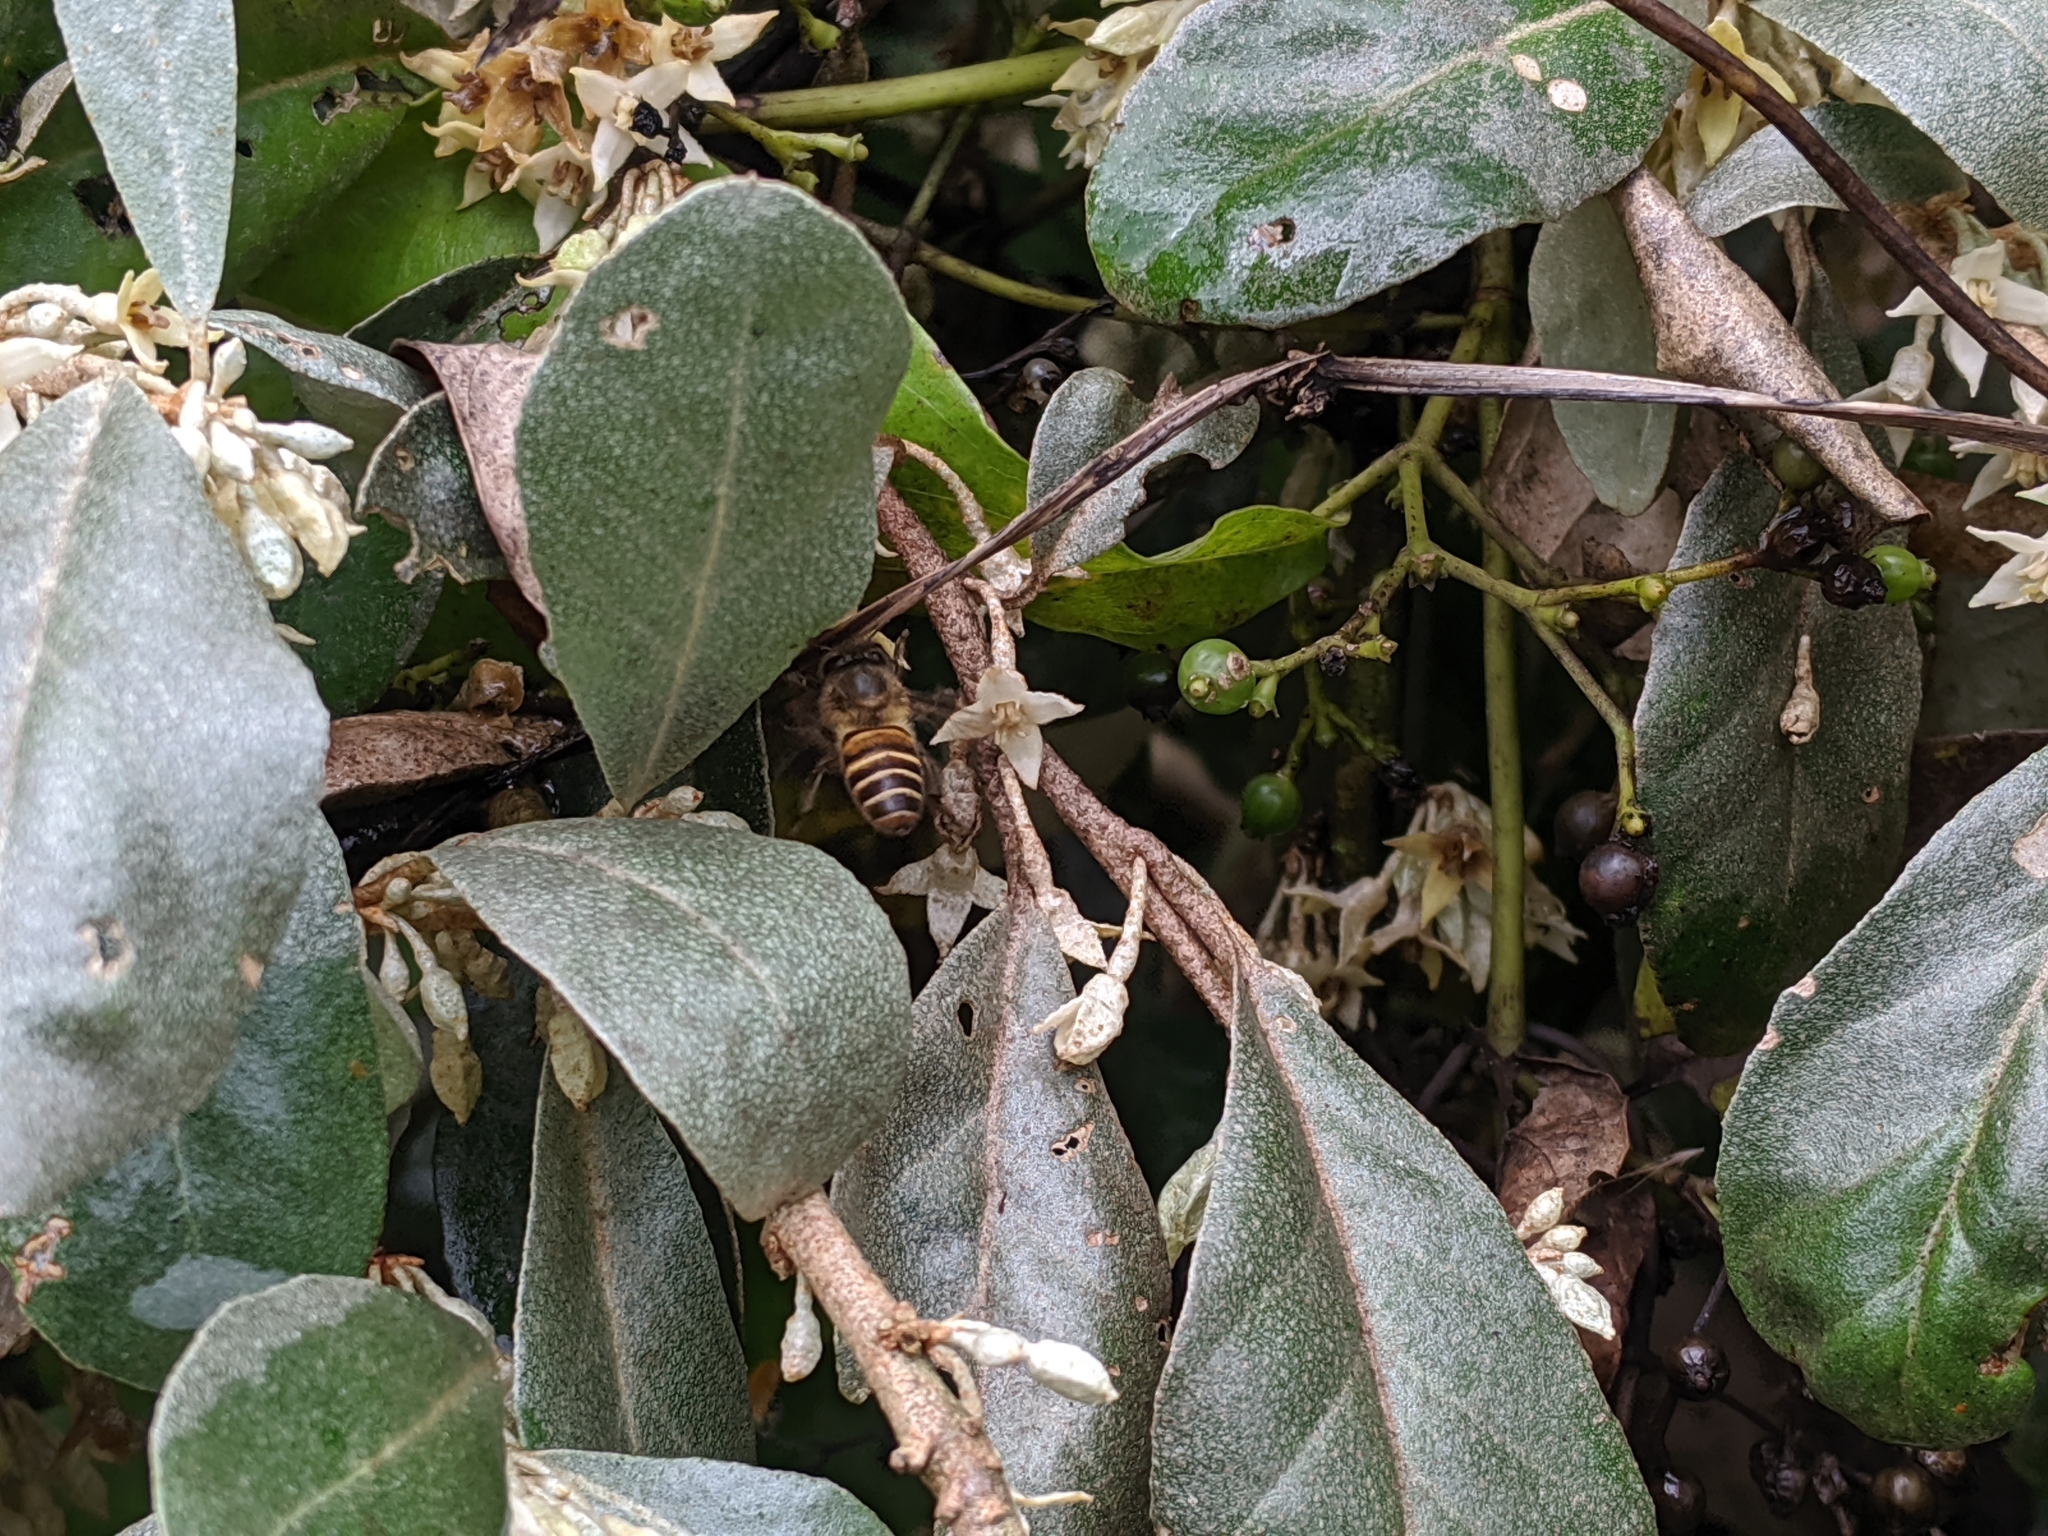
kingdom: Animalia
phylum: Arthropoda
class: Insecta
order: Hymenoptera
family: Apidae
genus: Apis
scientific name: Apis cerana
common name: Honey bee
